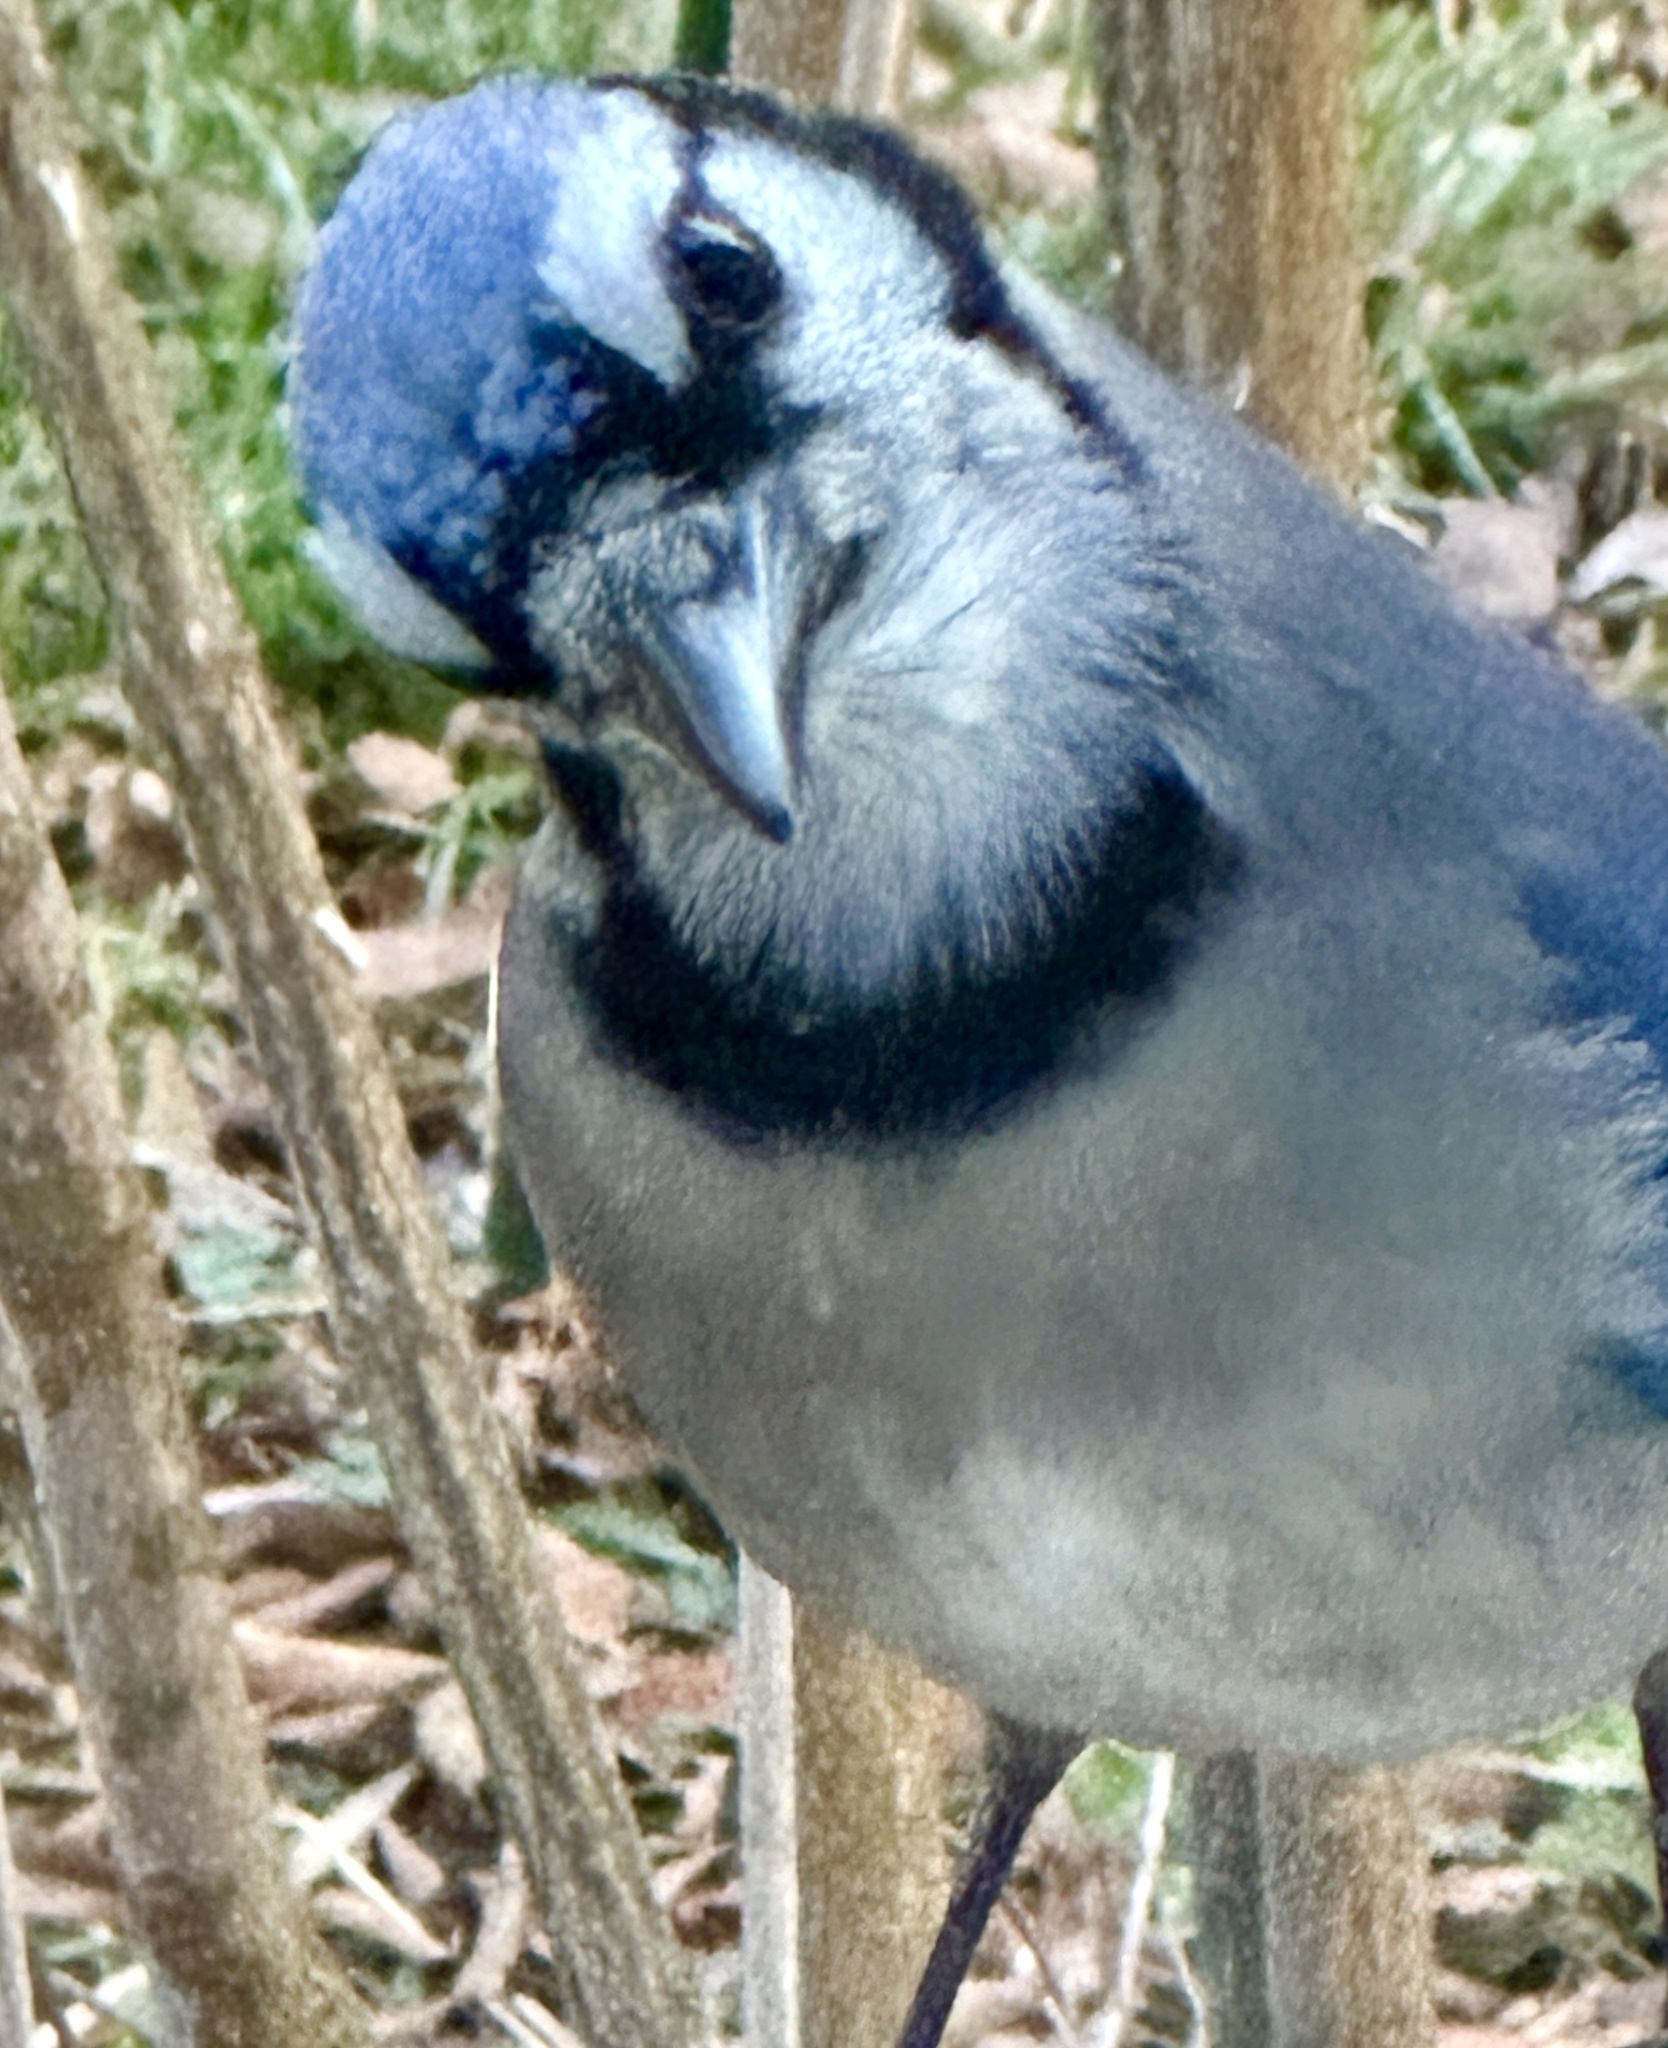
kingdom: Animalia
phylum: Chordata
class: Aves
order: Passeriformes
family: Corvidae
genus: Cyanocitta
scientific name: Cyanocitta cristata
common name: Blue jay
